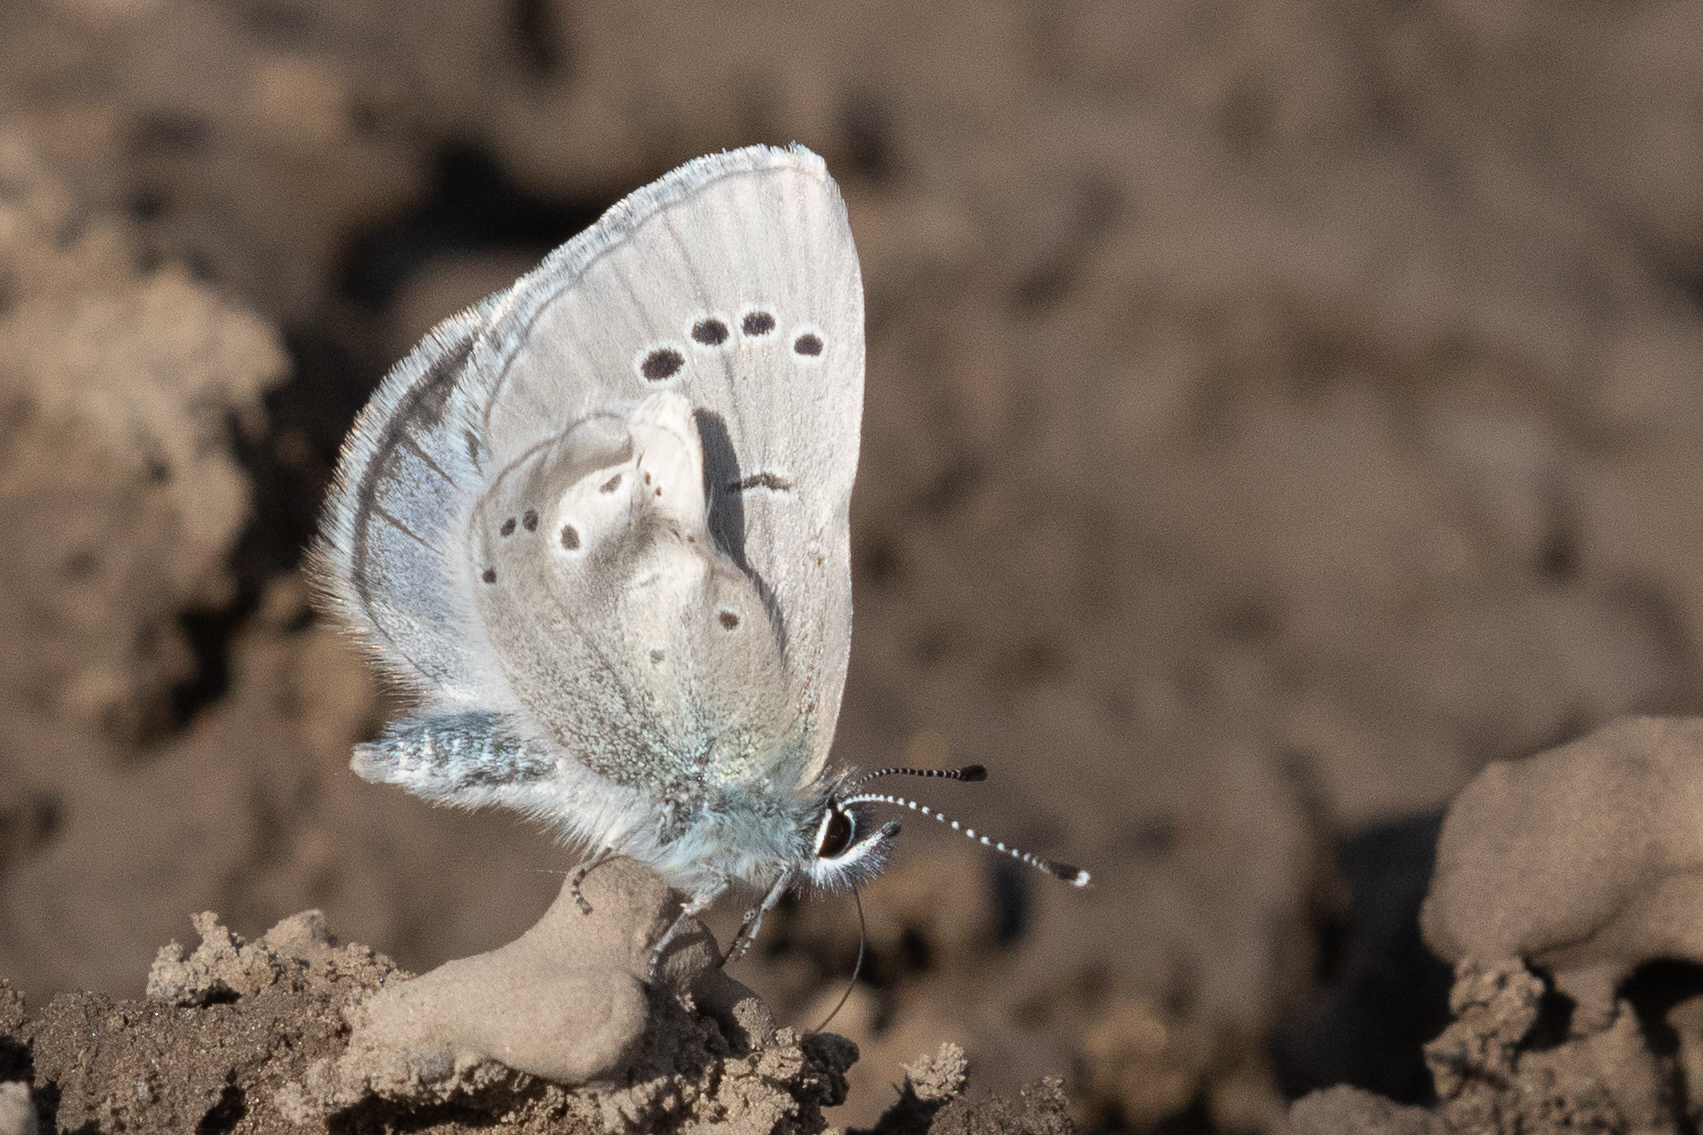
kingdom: Animalia
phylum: Arthropoda
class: Insecta
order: Lepidoptera
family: Lycaenidae
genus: Glaucopsyche
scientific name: Glaucopsyche lygdamus
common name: Silvery blue
